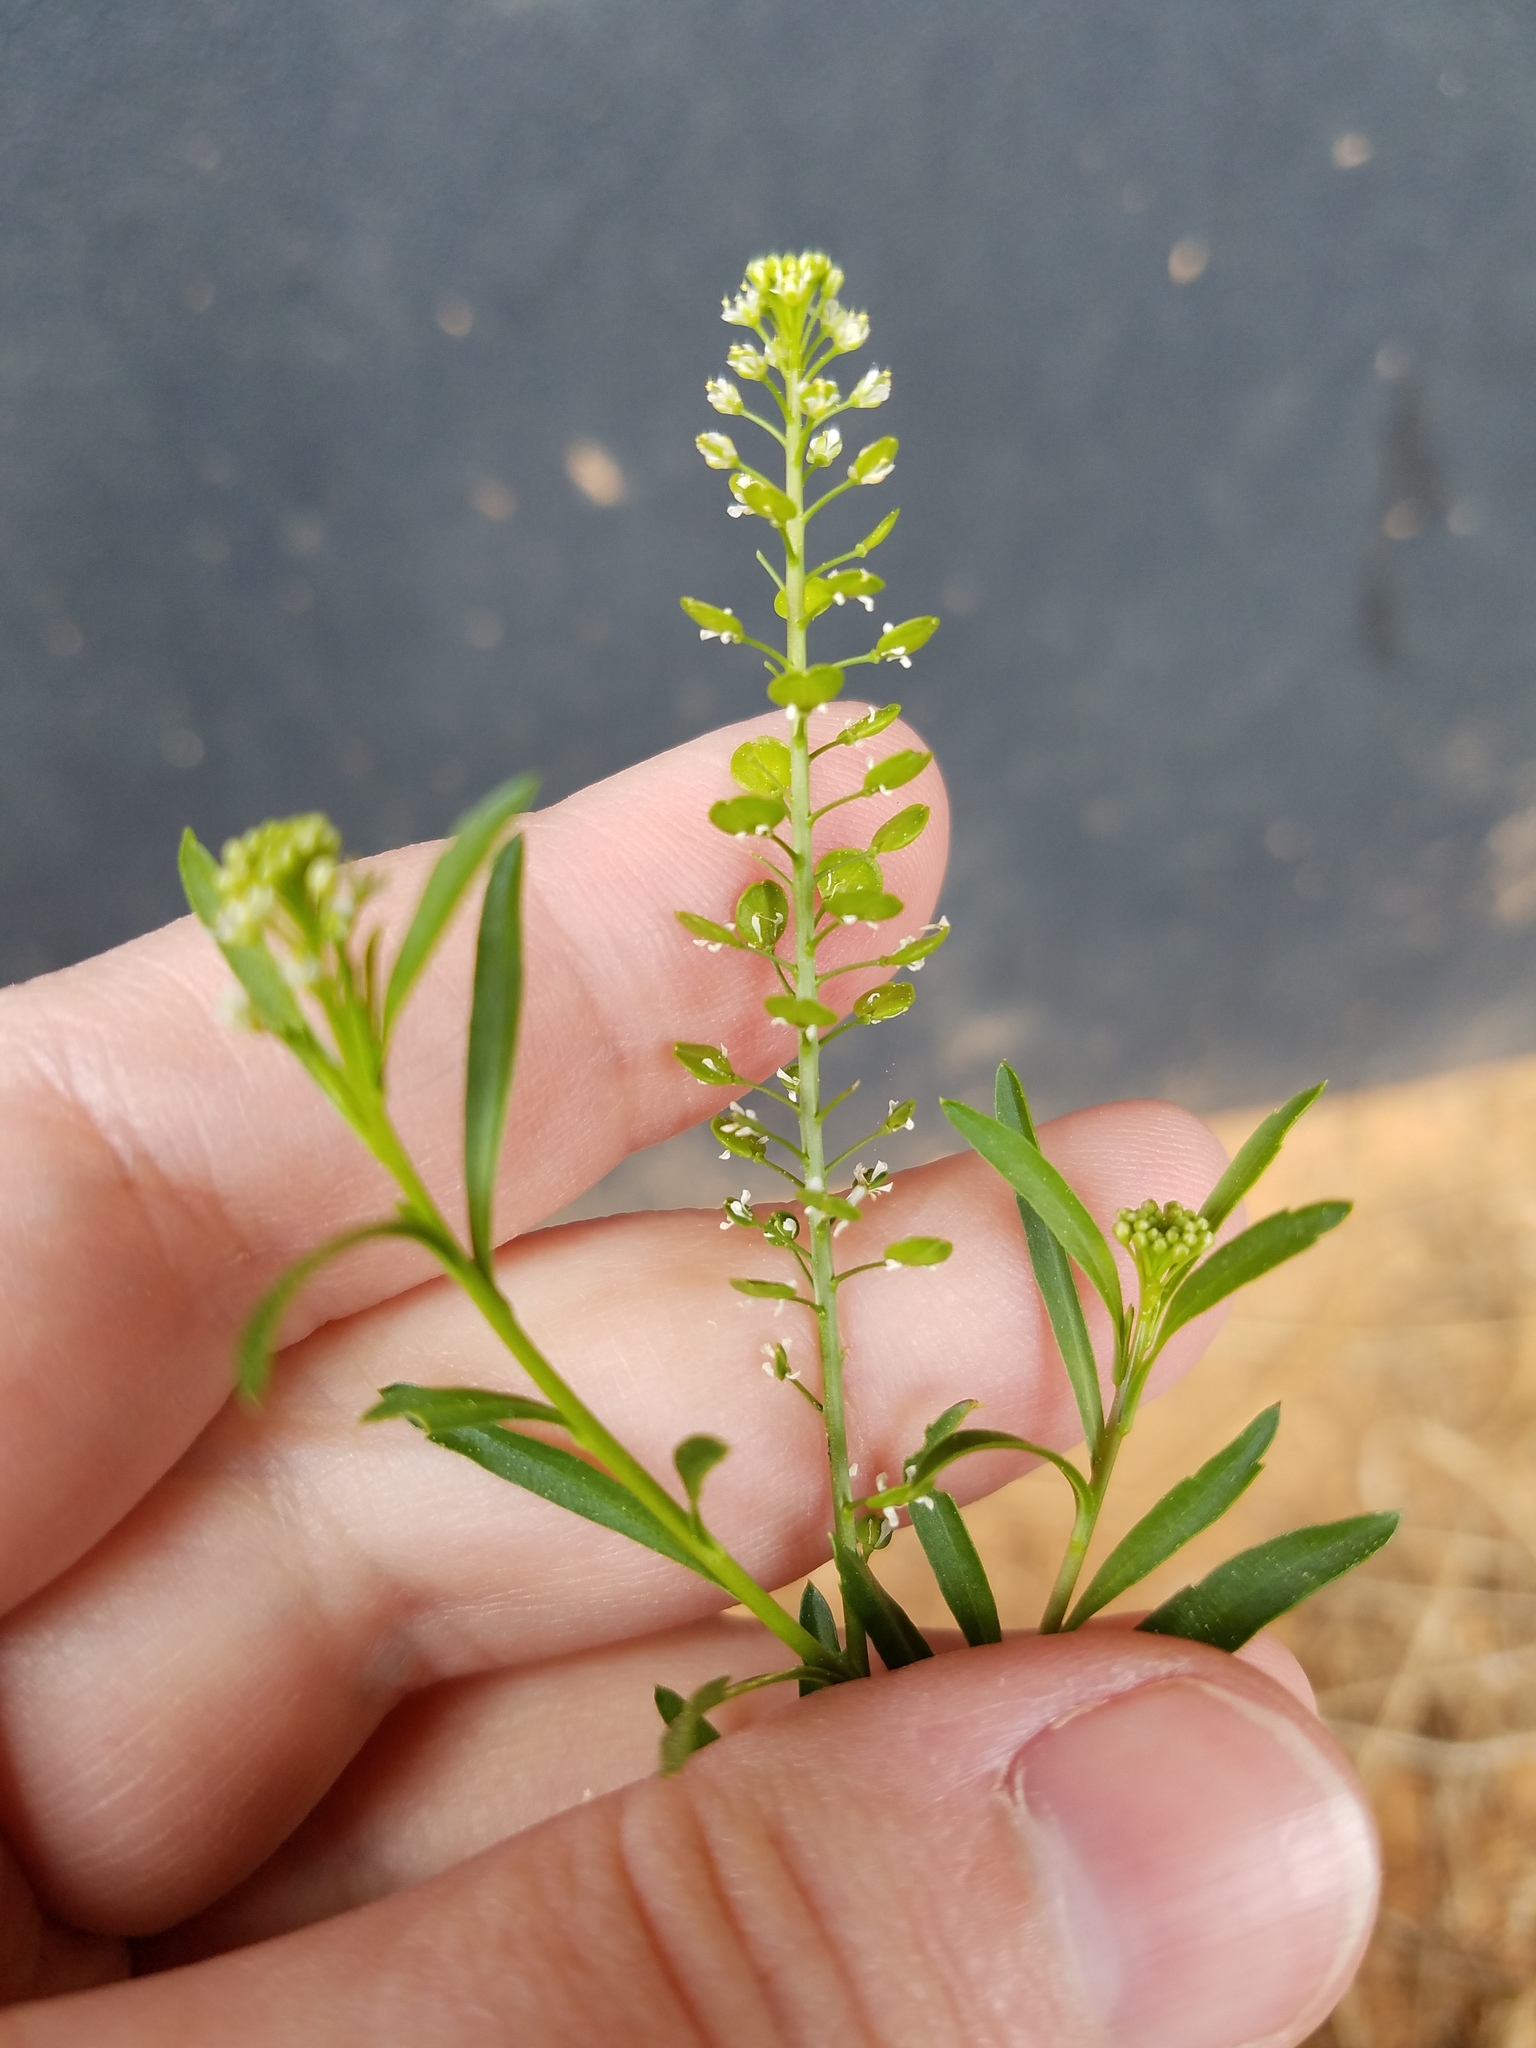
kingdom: Plantae
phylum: Tracheophyta
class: Magnoliopsida
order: Brassicales
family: Brassicaceae
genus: Lepidium
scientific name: Lepidium virginicum
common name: Least pepperwort
